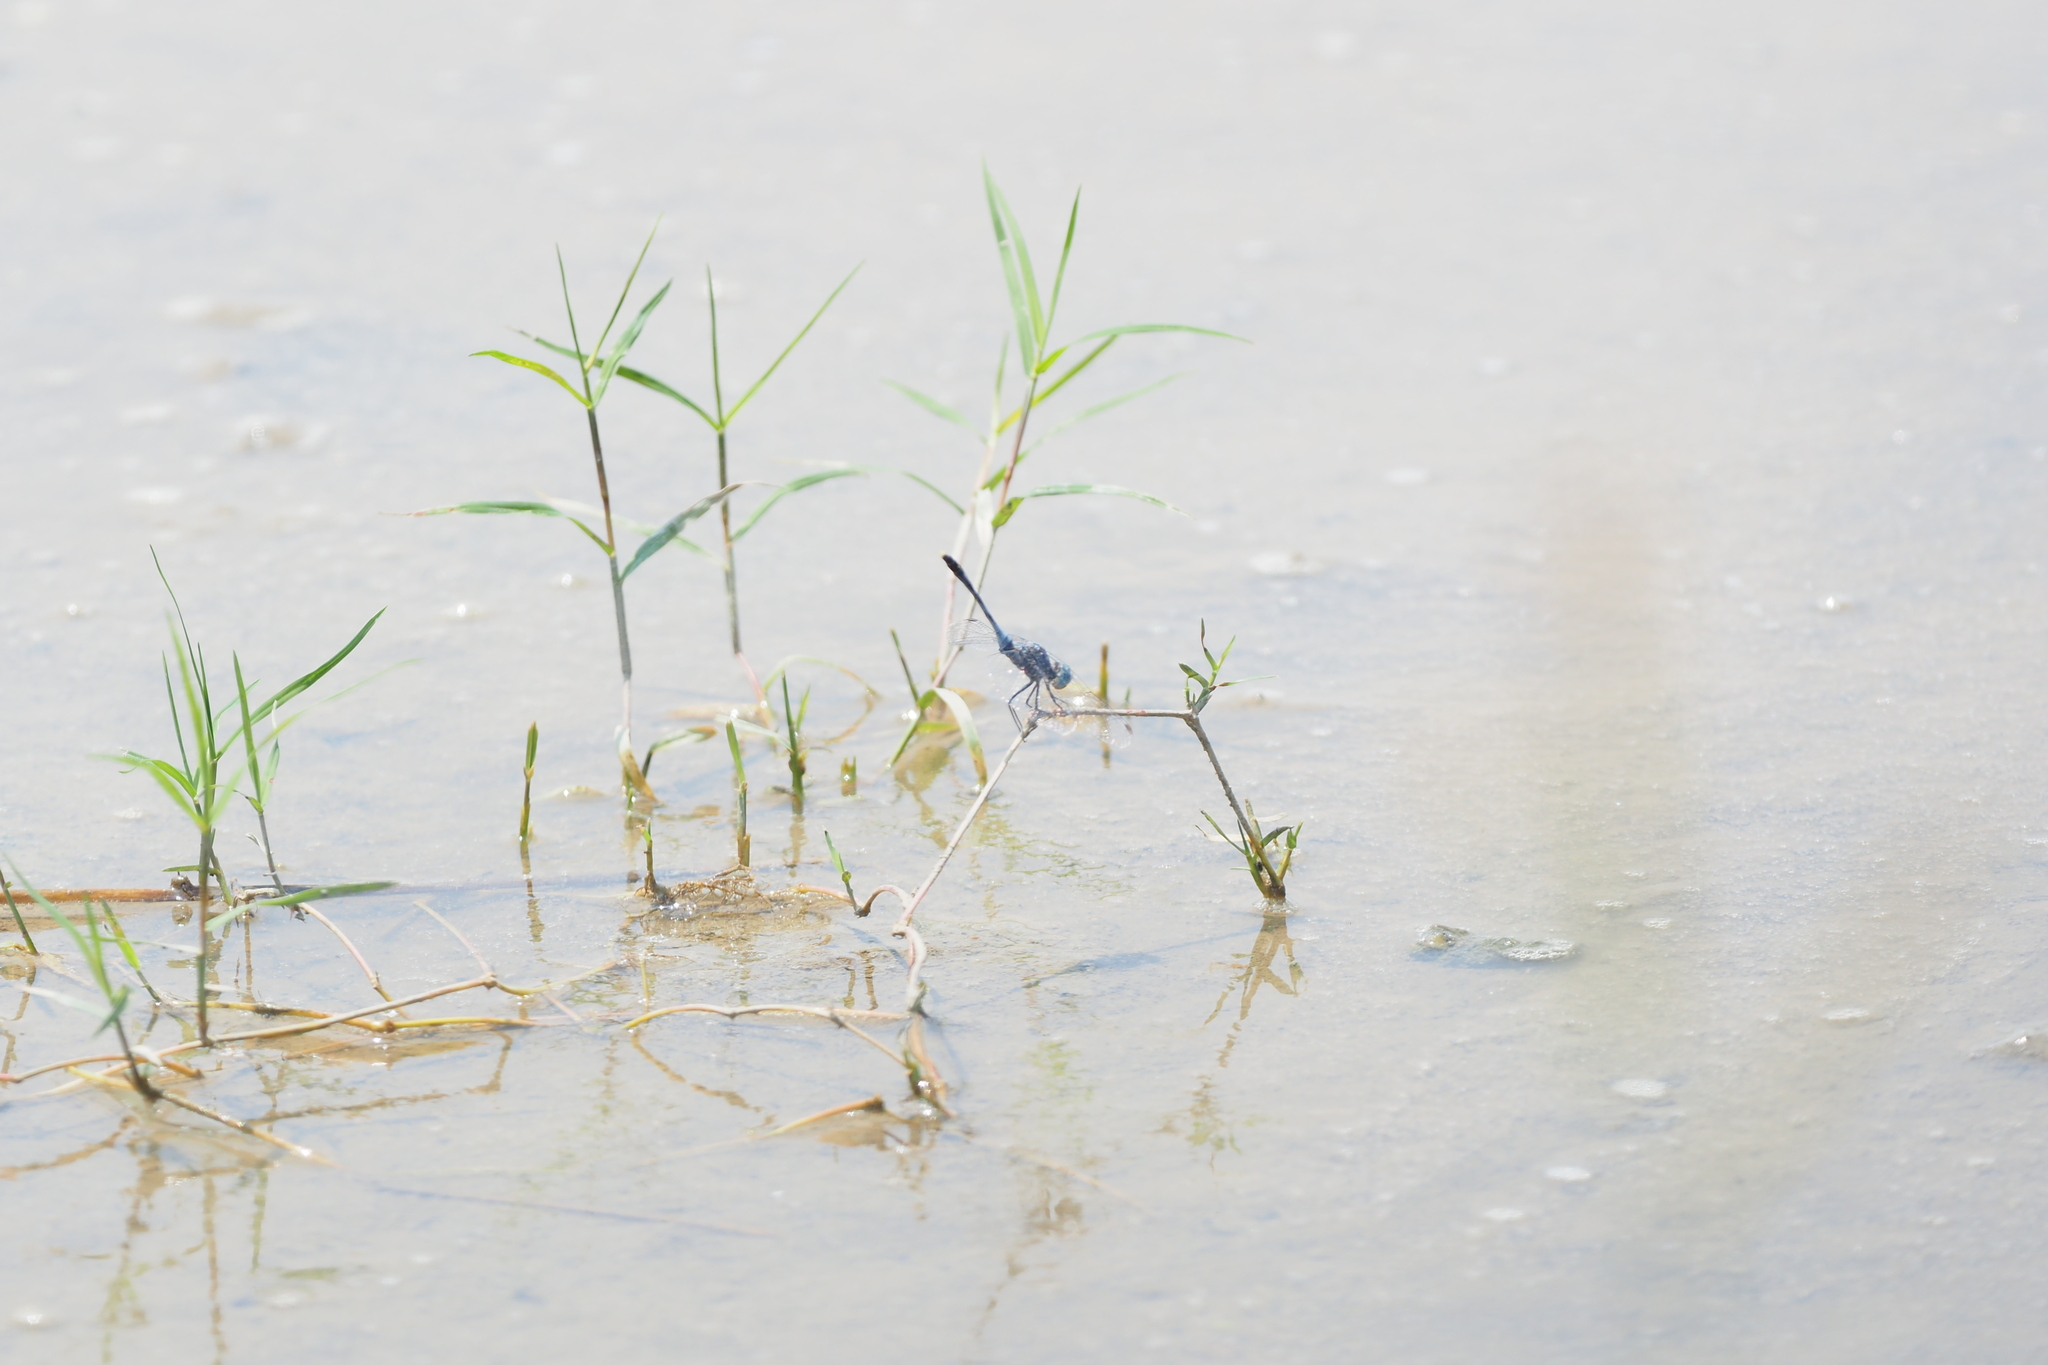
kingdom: Animalia
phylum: Arthropoda
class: Insecta
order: Odonata
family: Libellulidae
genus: Diplacodes
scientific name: Diplacodes trivialis
